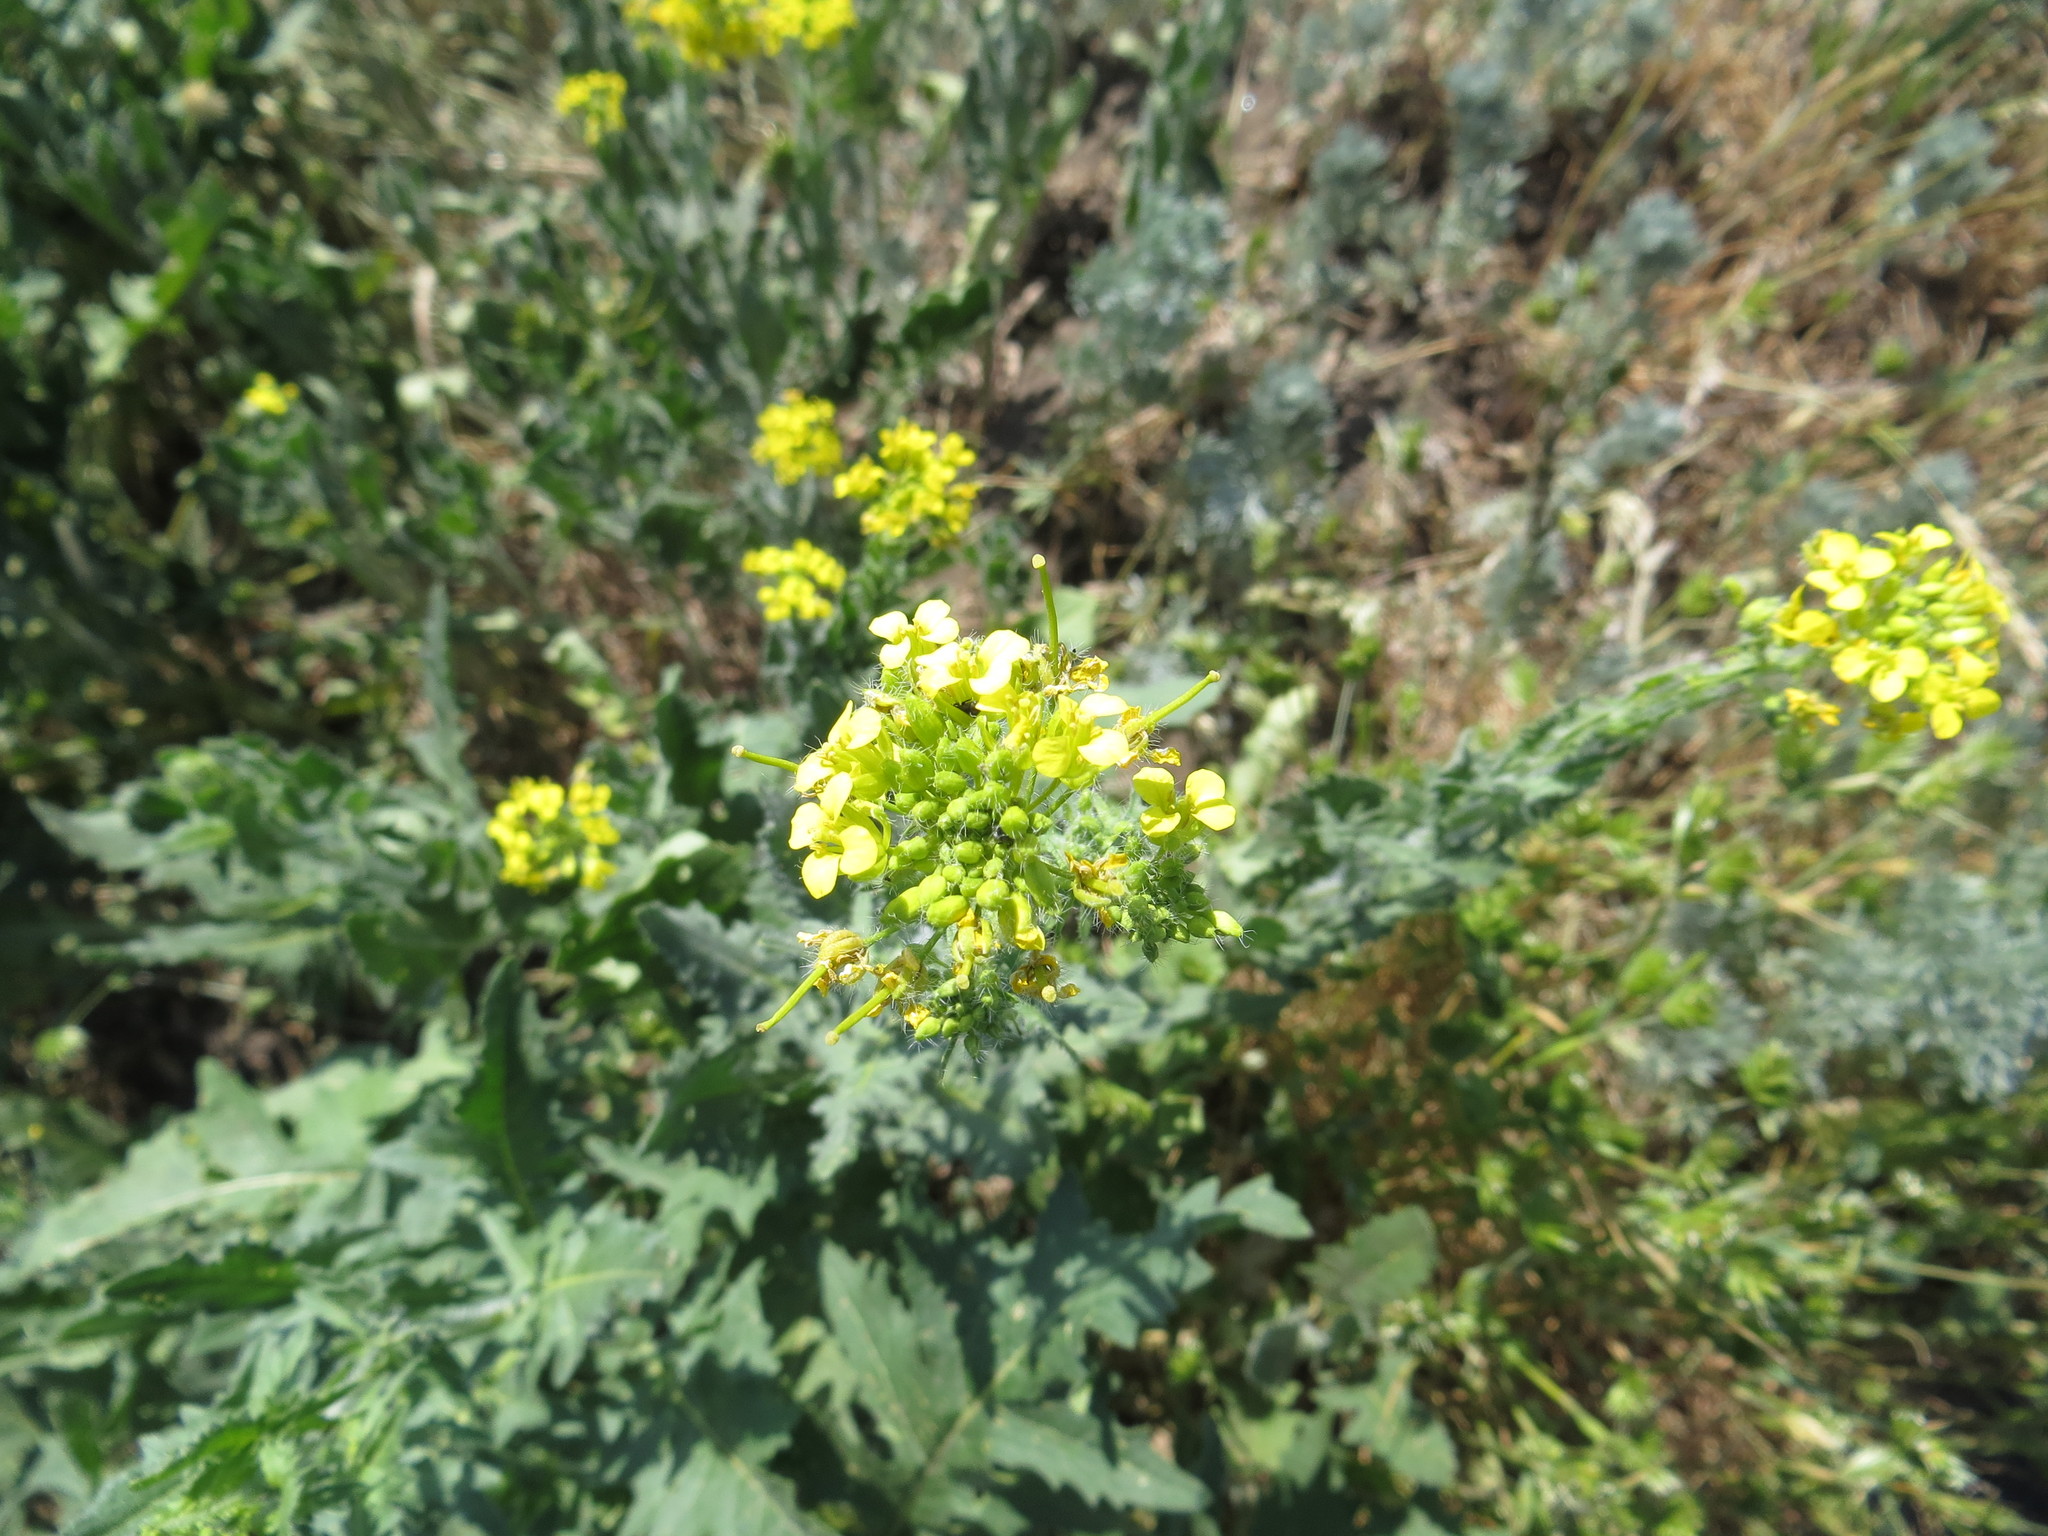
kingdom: Plantae
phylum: Tracheophyta
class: Magnoliopsida
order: Brassicales
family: Brassicaceae
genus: Sisymbrium
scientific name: Sisymbrium loeselii
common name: False london-rocket
